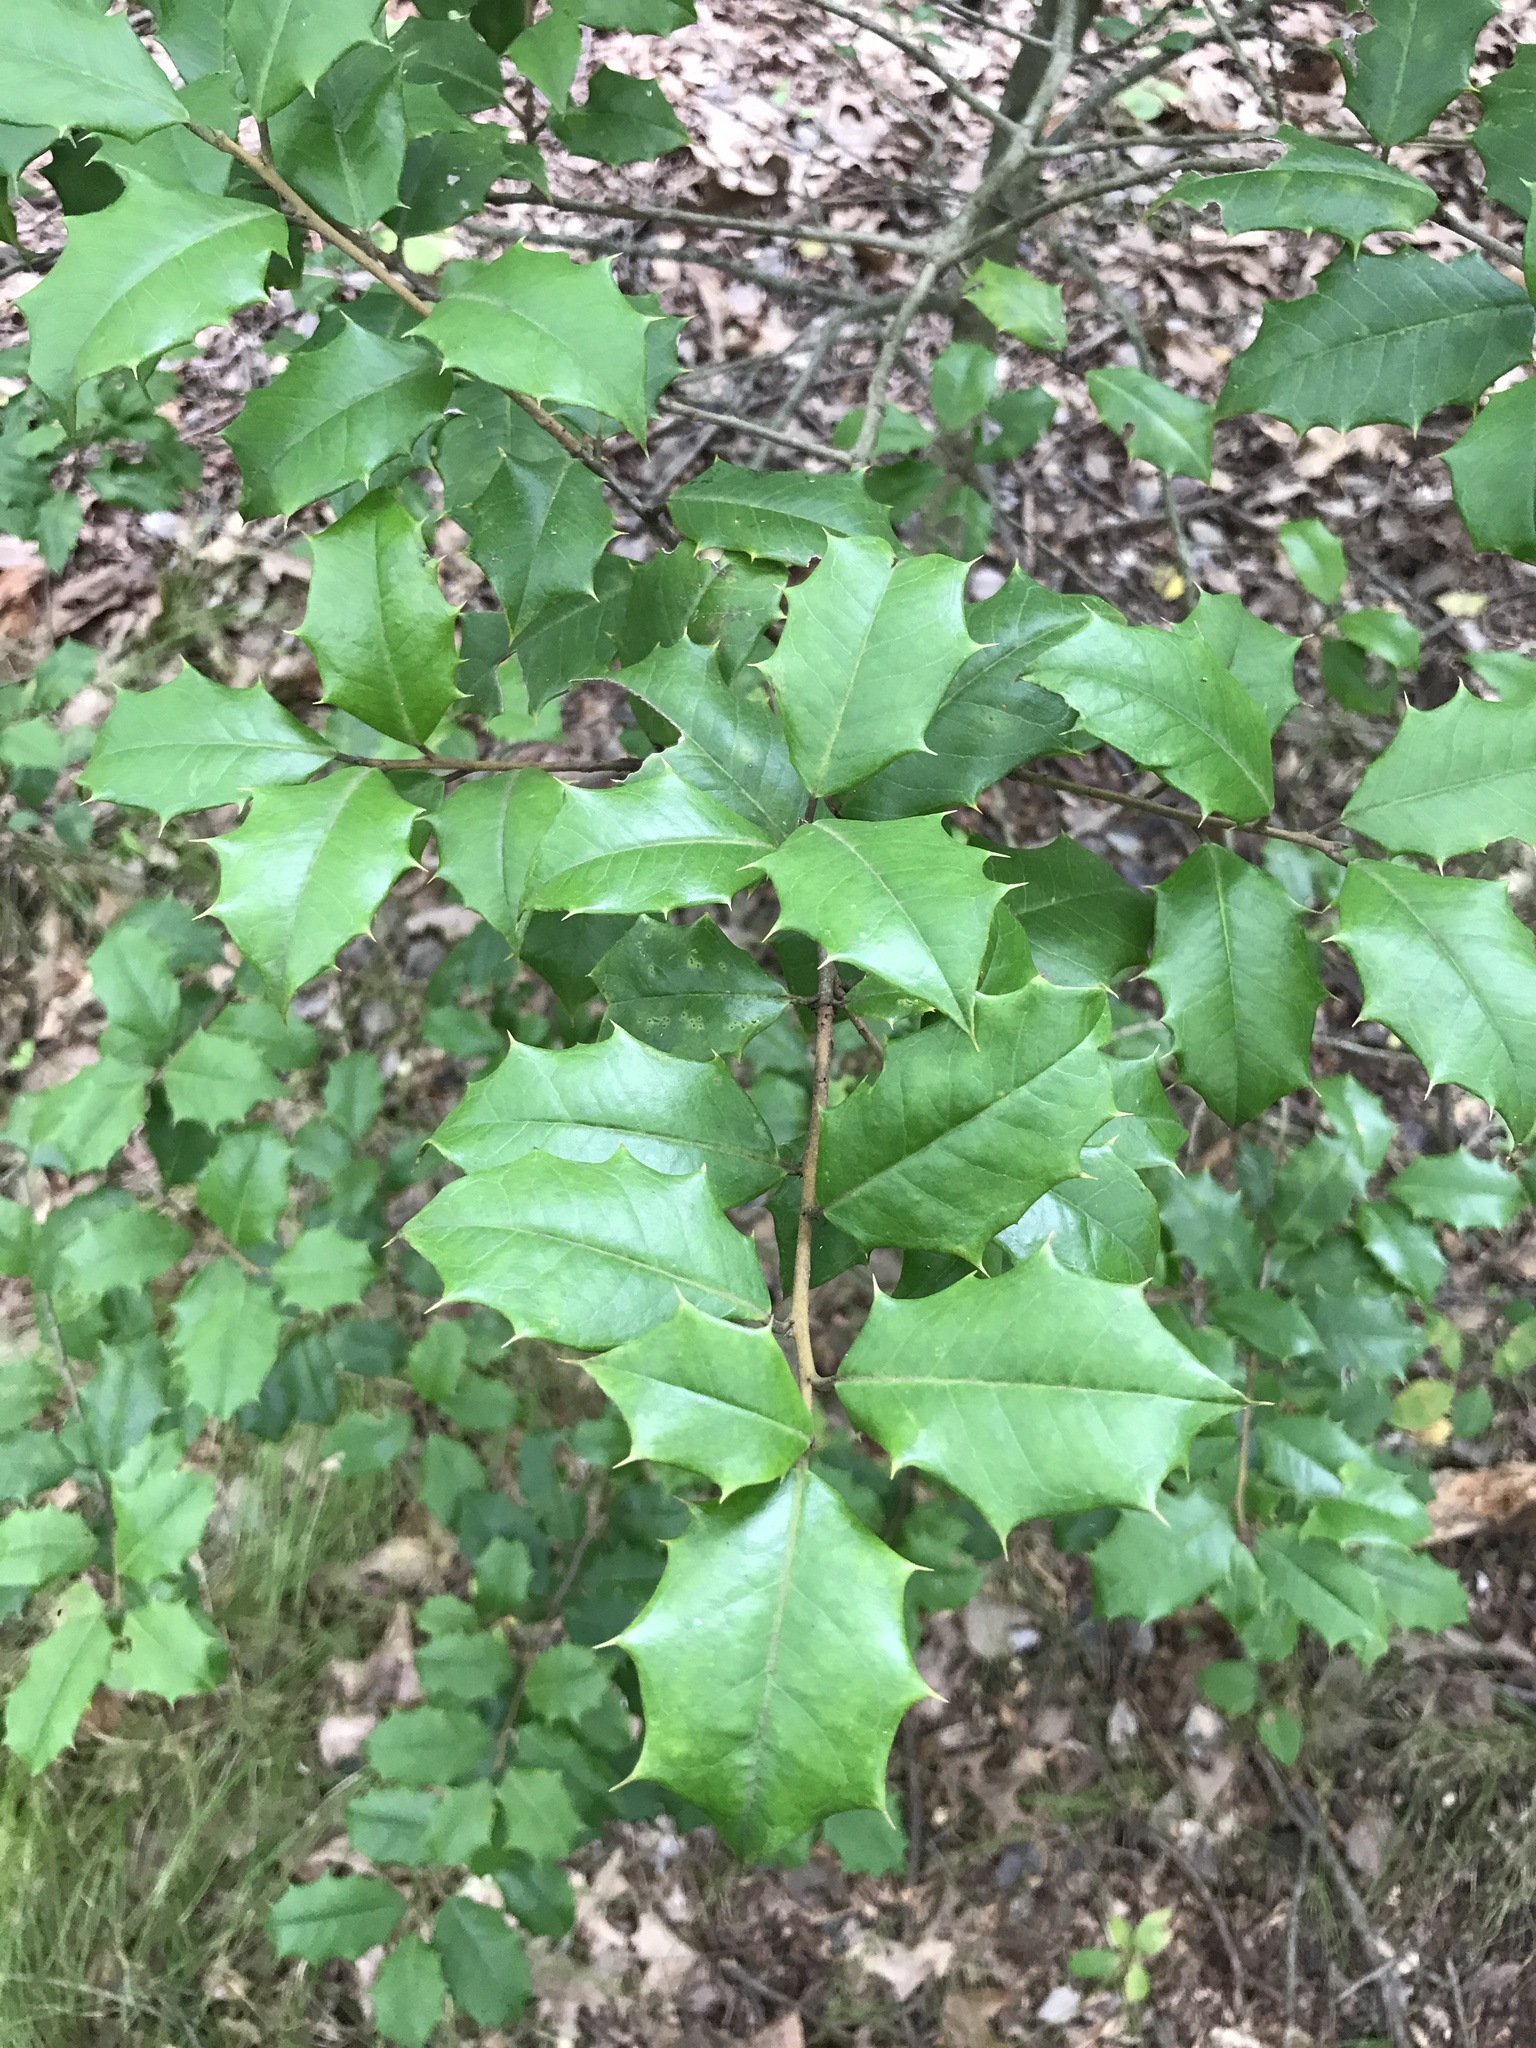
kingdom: Plantae
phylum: Tracheophyta
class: Magnoliopsida
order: Aquifoliales
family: Aquifoliaceae
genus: Ilex
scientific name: Ilex opaca
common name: American holly
